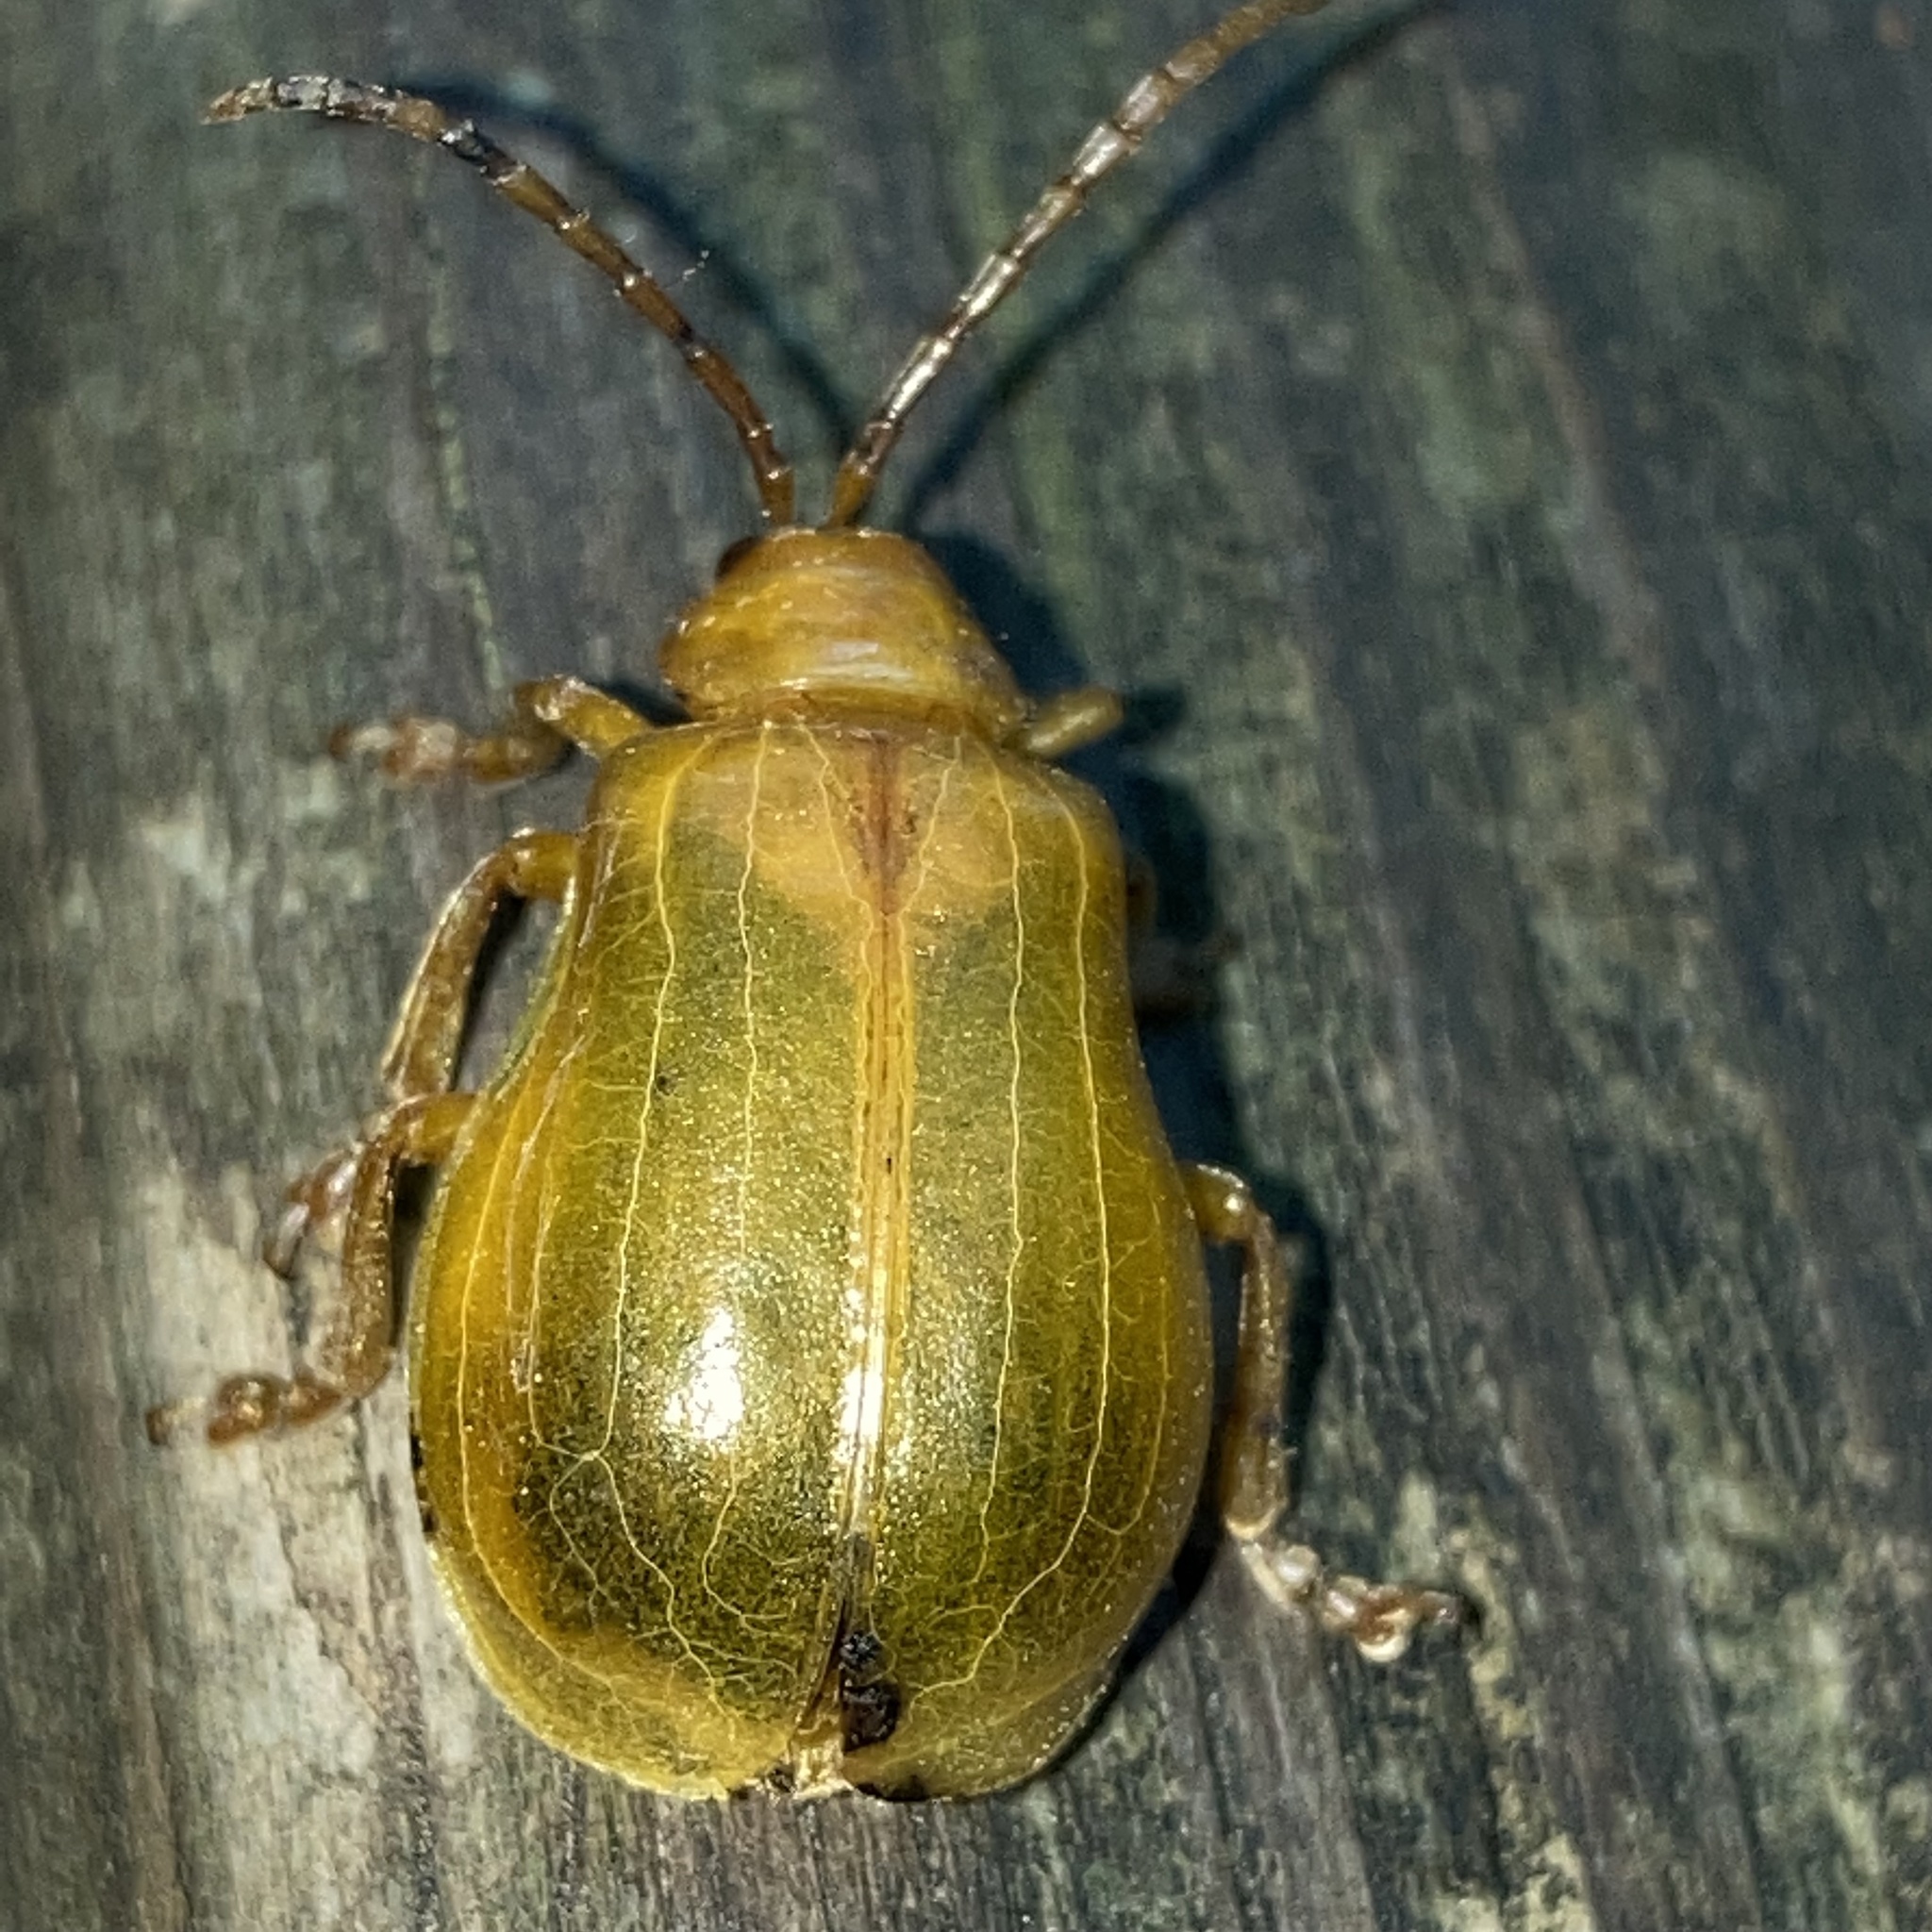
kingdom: Animalia
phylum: Arthropoda
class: Insecta
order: Coleoptera
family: Chrysomelidae
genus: Monocesta
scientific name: Monocesta coryli
